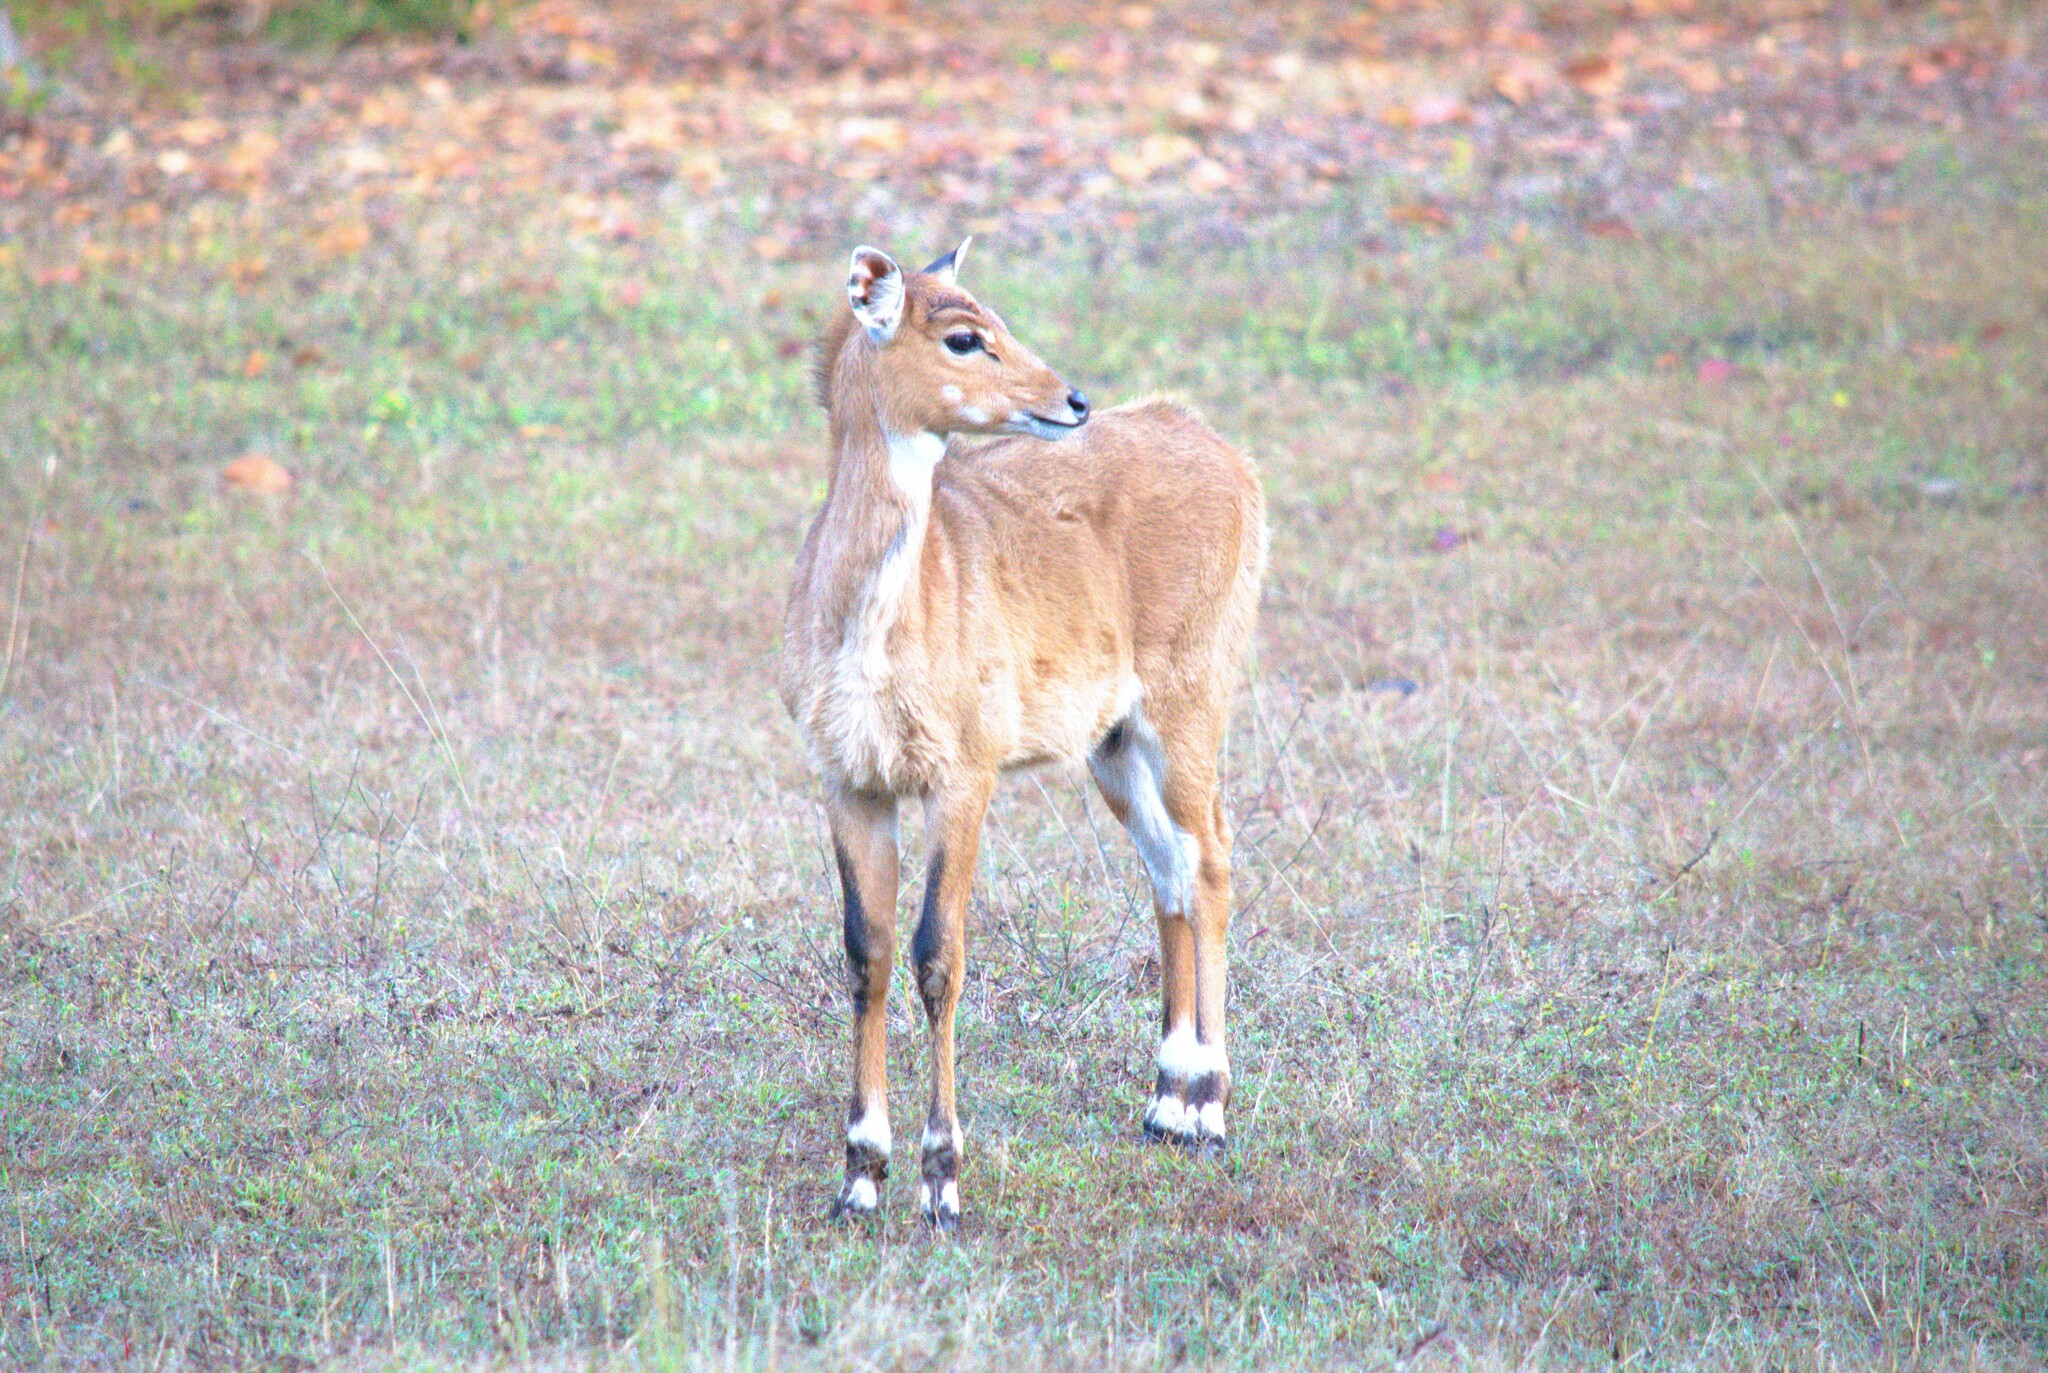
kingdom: Animalia
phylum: Chordata
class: Mammalia
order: Artiodactyla
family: Bovidae
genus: Boselaphus
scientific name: Boselaphus tragocamelus
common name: Nilgai
